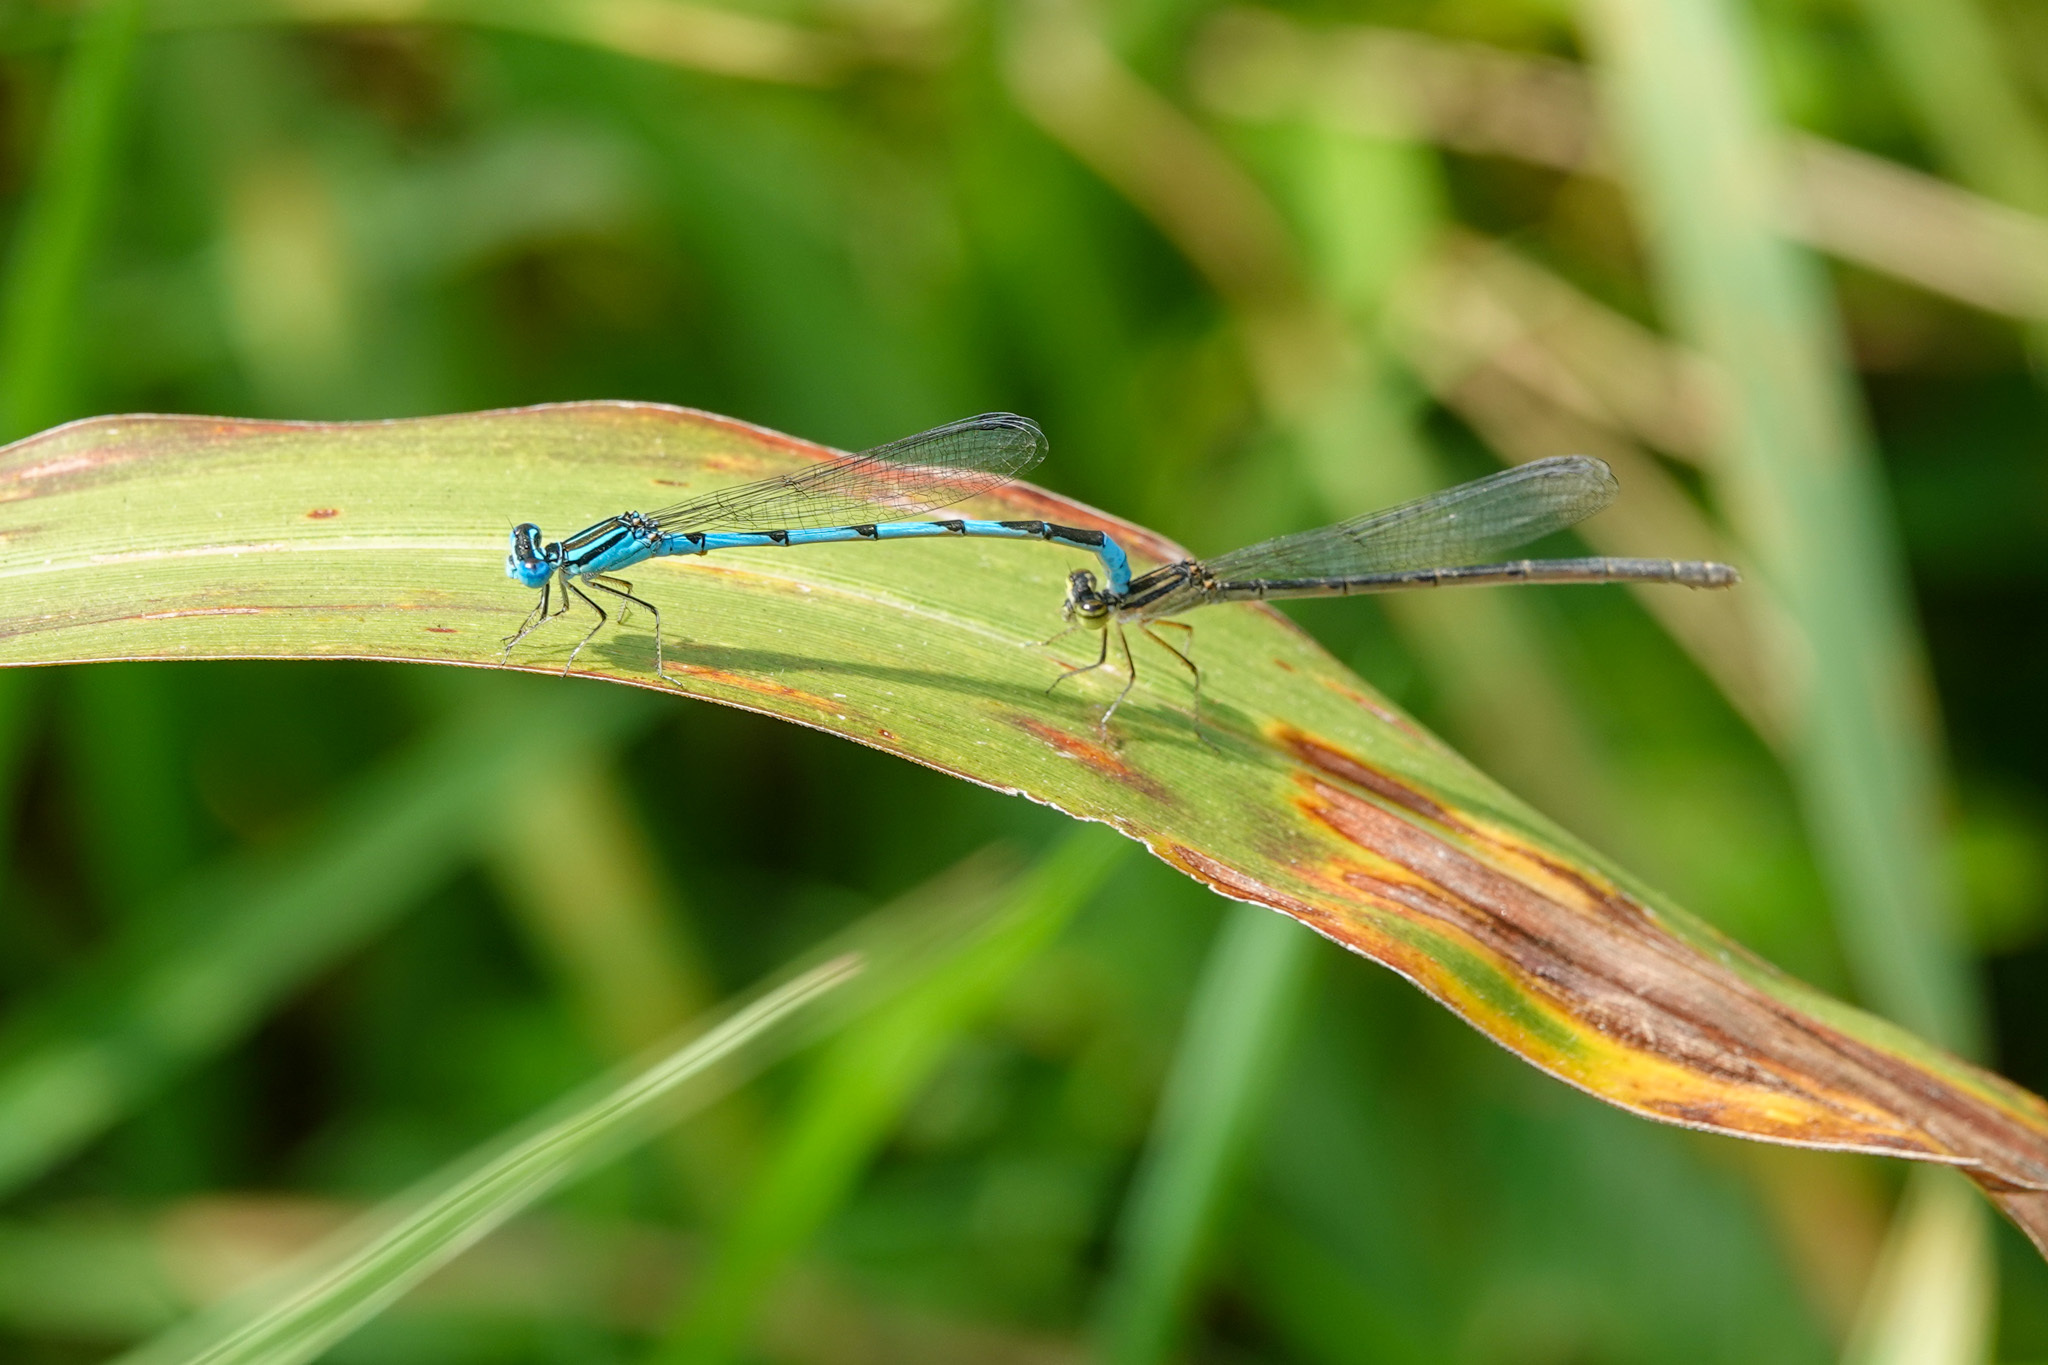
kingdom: Animalia
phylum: Arthropoda
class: Insecta
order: Odonata
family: Coenagrionidae
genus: Enallagma
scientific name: Enallagma durum
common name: Big bluet
